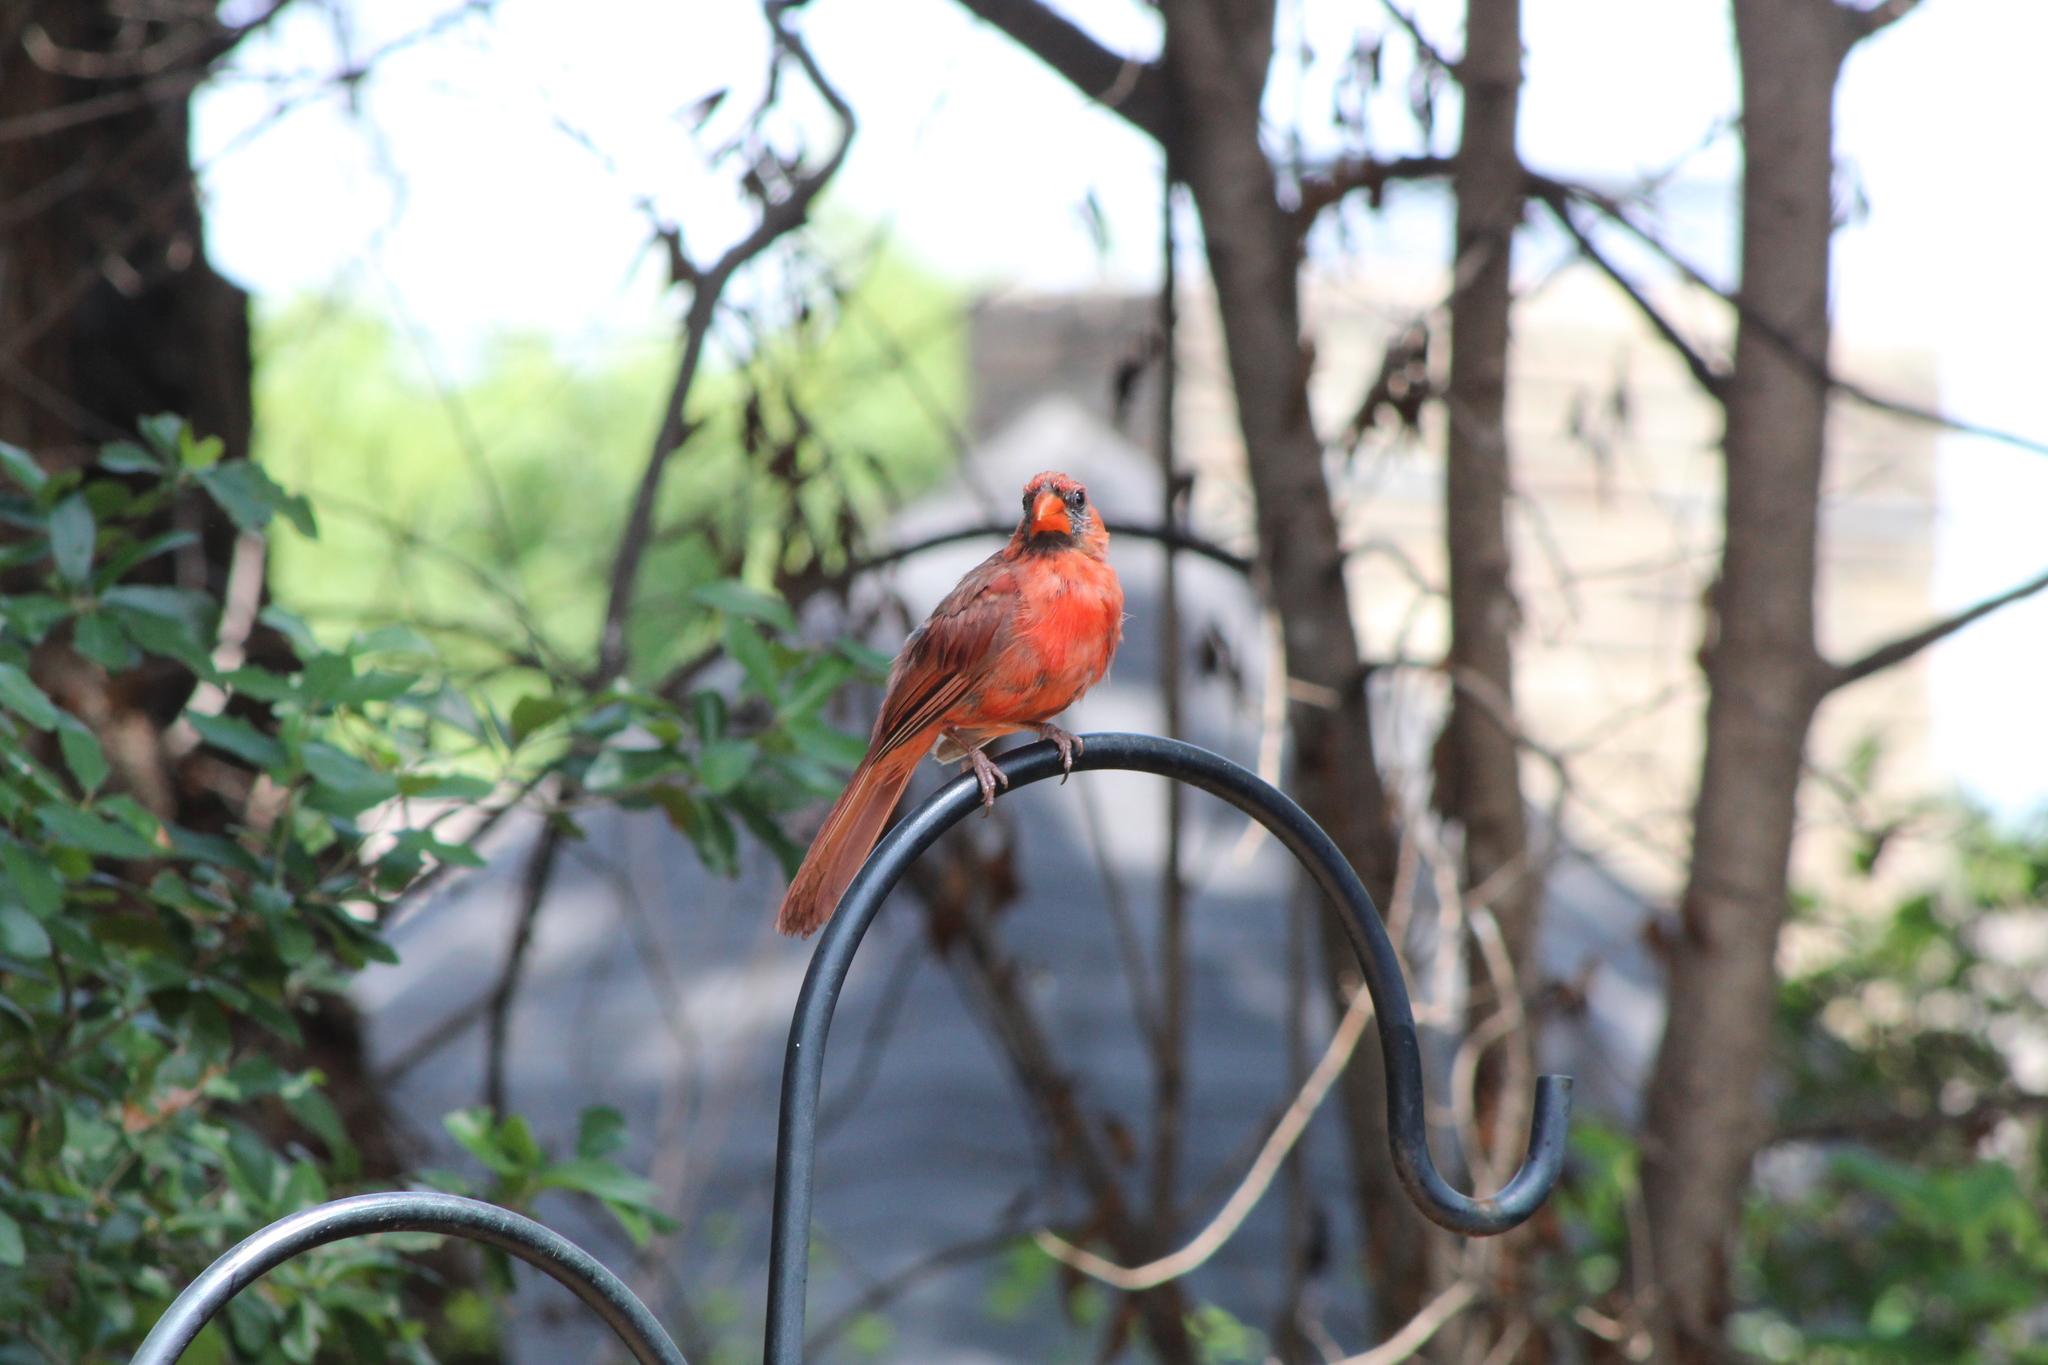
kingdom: Animalia
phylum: Chordata
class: Aves
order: Passeriformes
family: Cardinalidae
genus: Cardinalis
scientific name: Cardinalis cardinalis
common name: Northern cardinal
